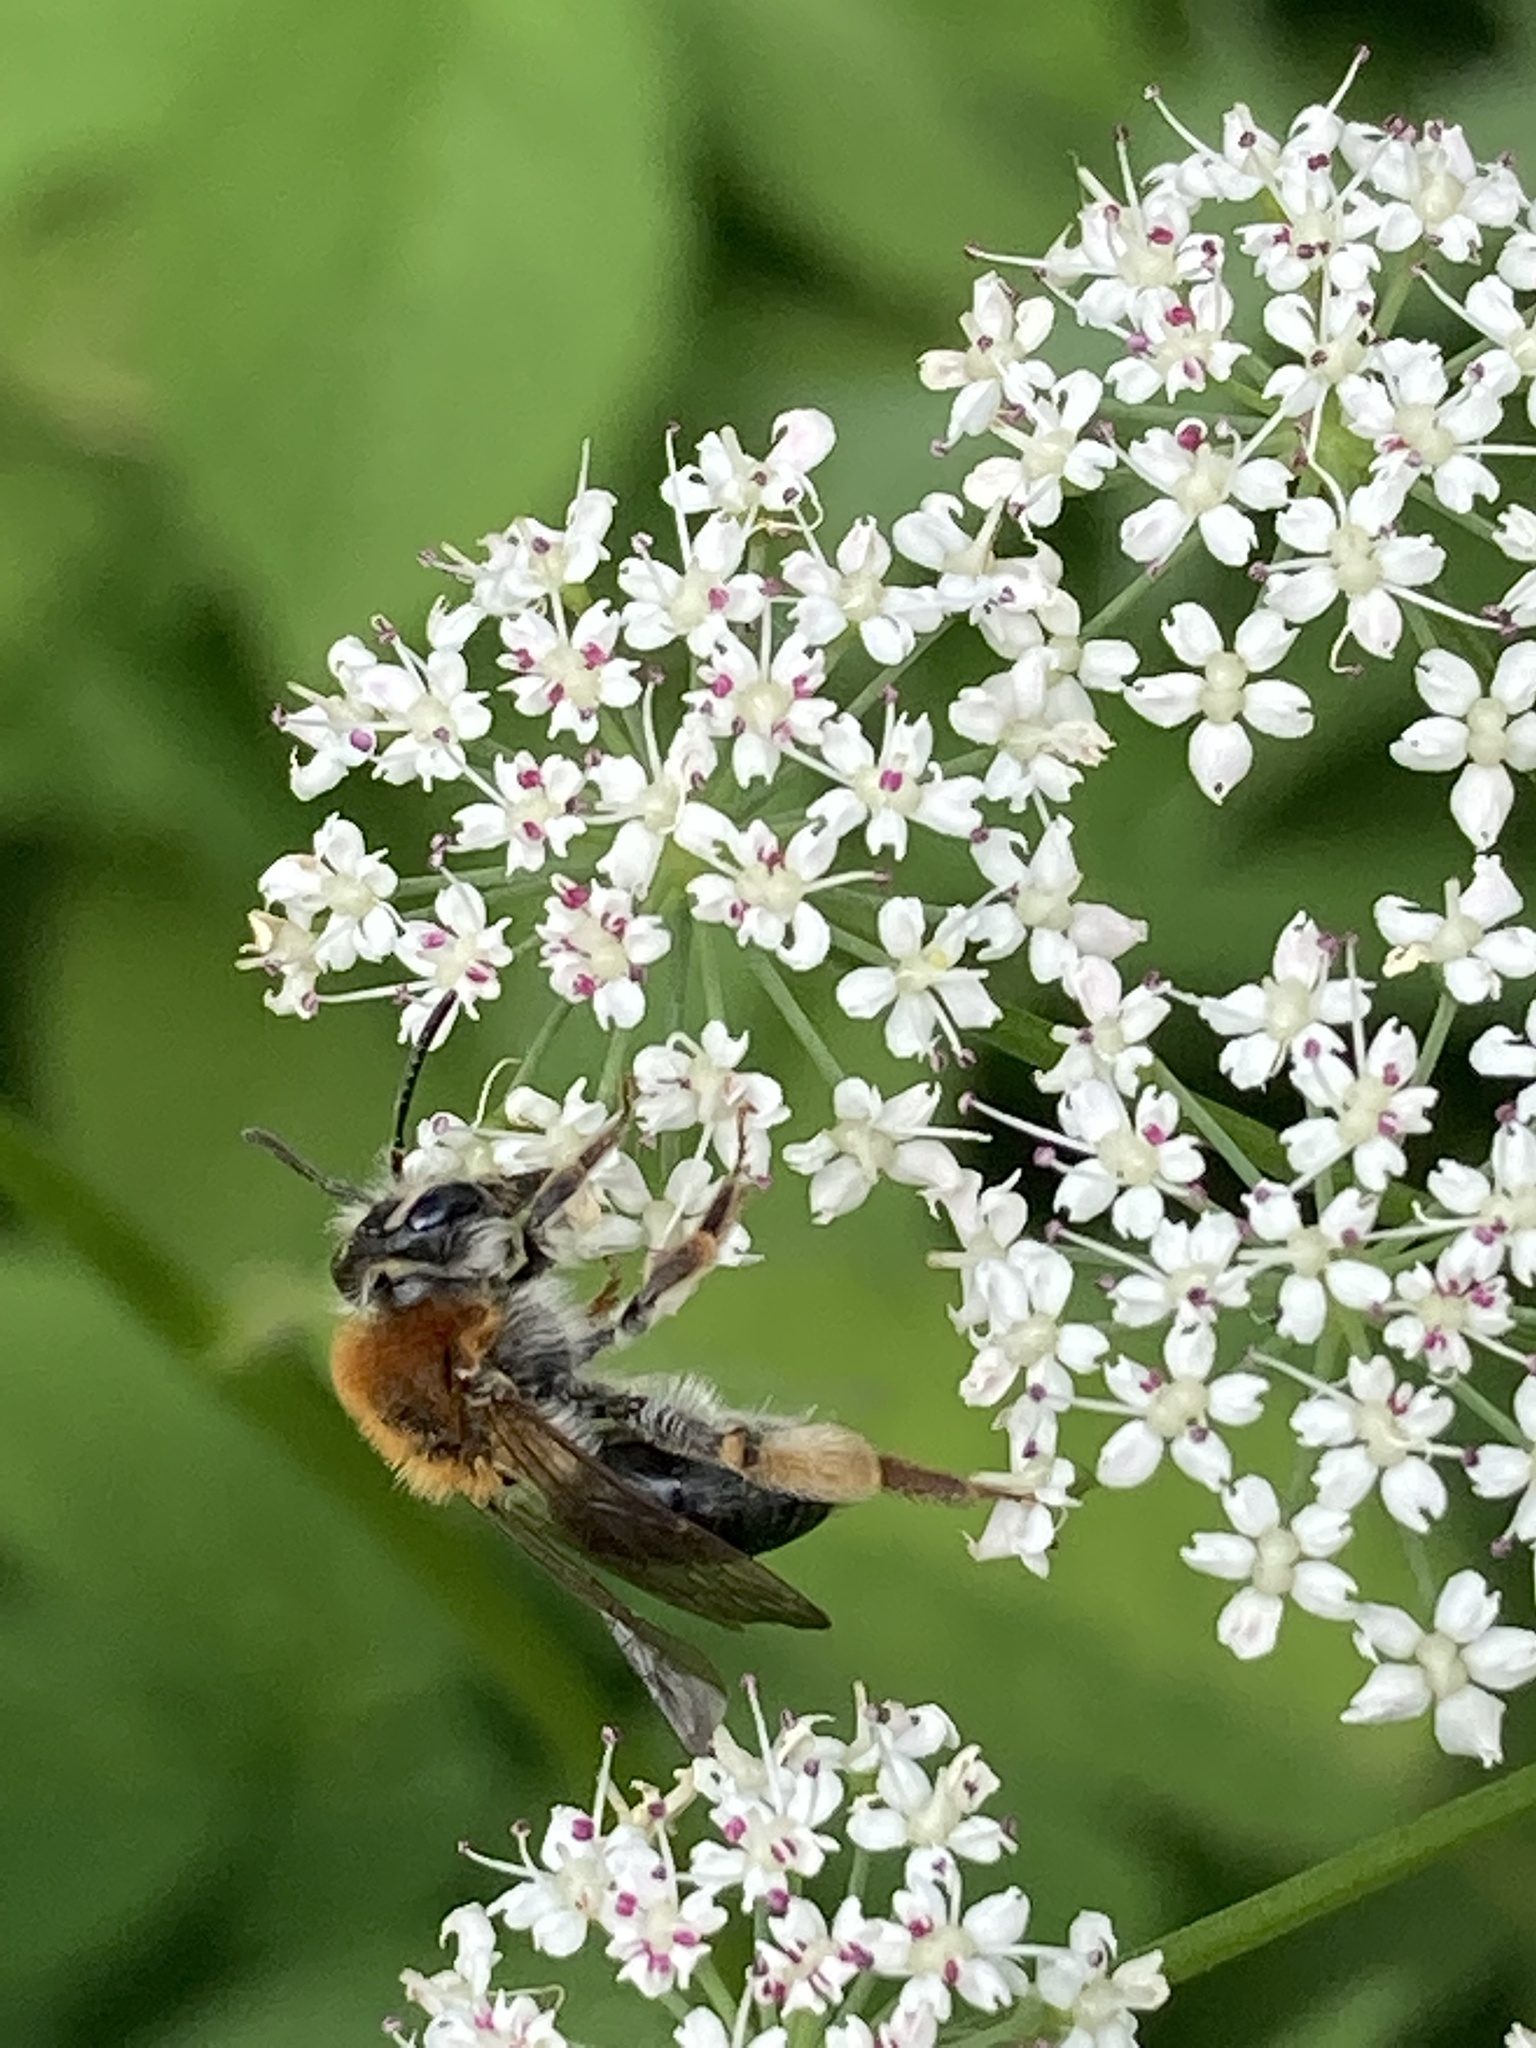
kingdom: Animalia
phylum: Arthropoda
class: Insecta
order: Hymenoptera
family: Andrenidae
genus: Andrena
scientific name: Andrena haemorrhoa
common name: Early mining bee
